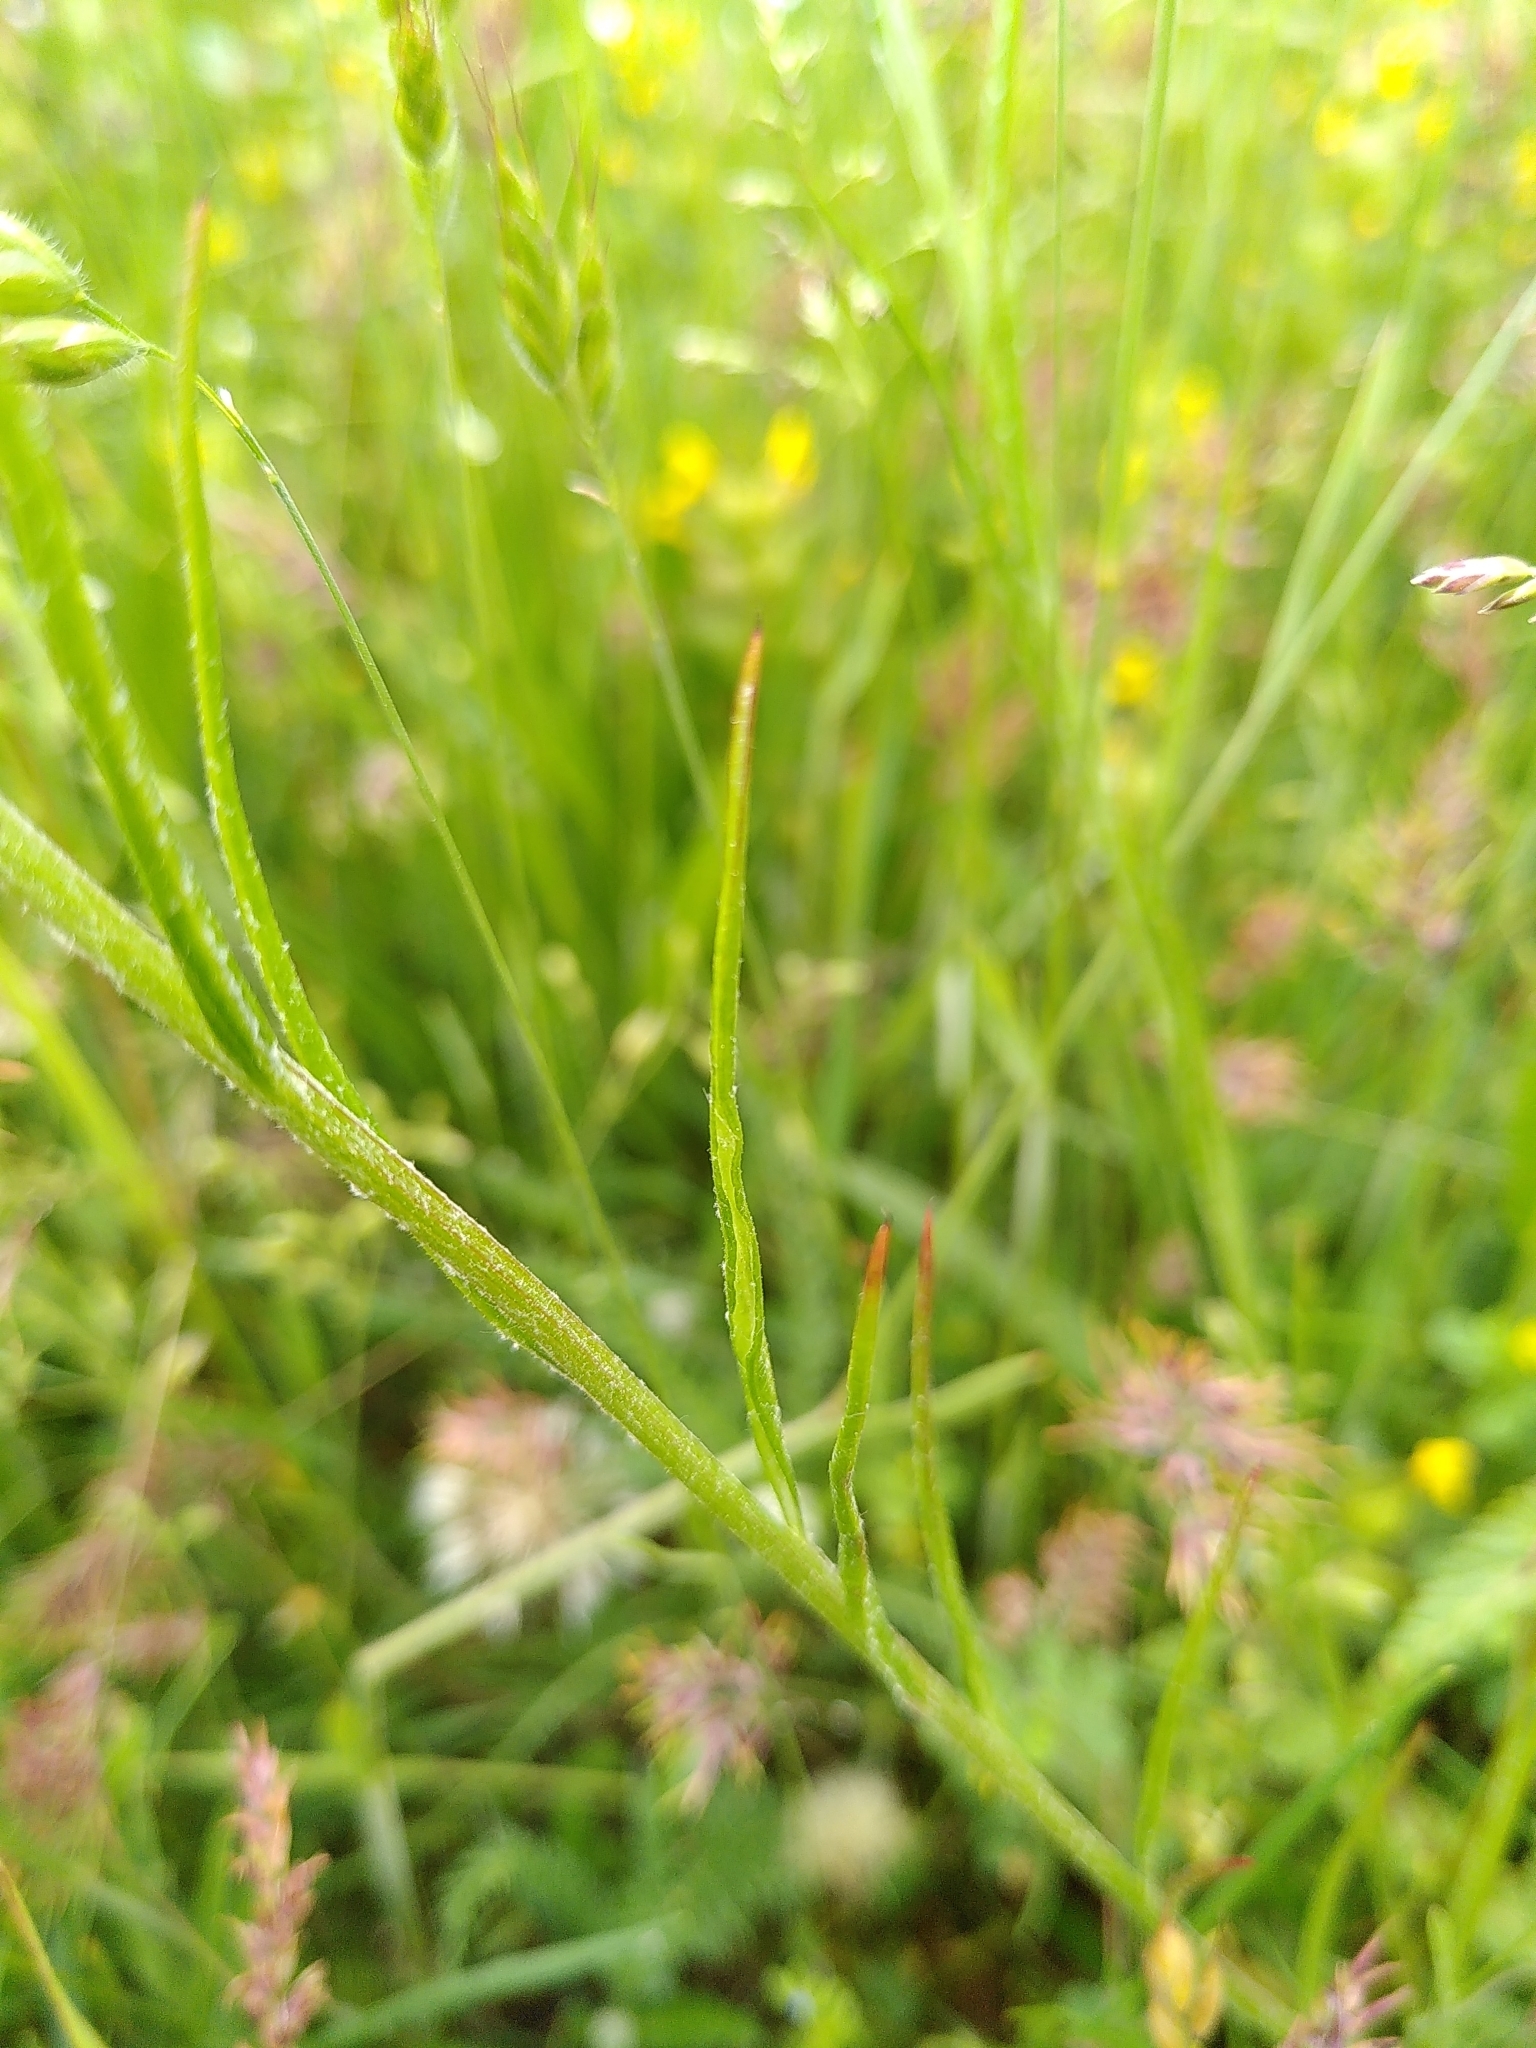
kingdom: Plantae
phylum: Tracheophyta
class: Magnoliopsida
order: Asterales
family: Asteraceae
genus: Centaurea
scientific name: Centaurea cyanus
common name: Cornflower
